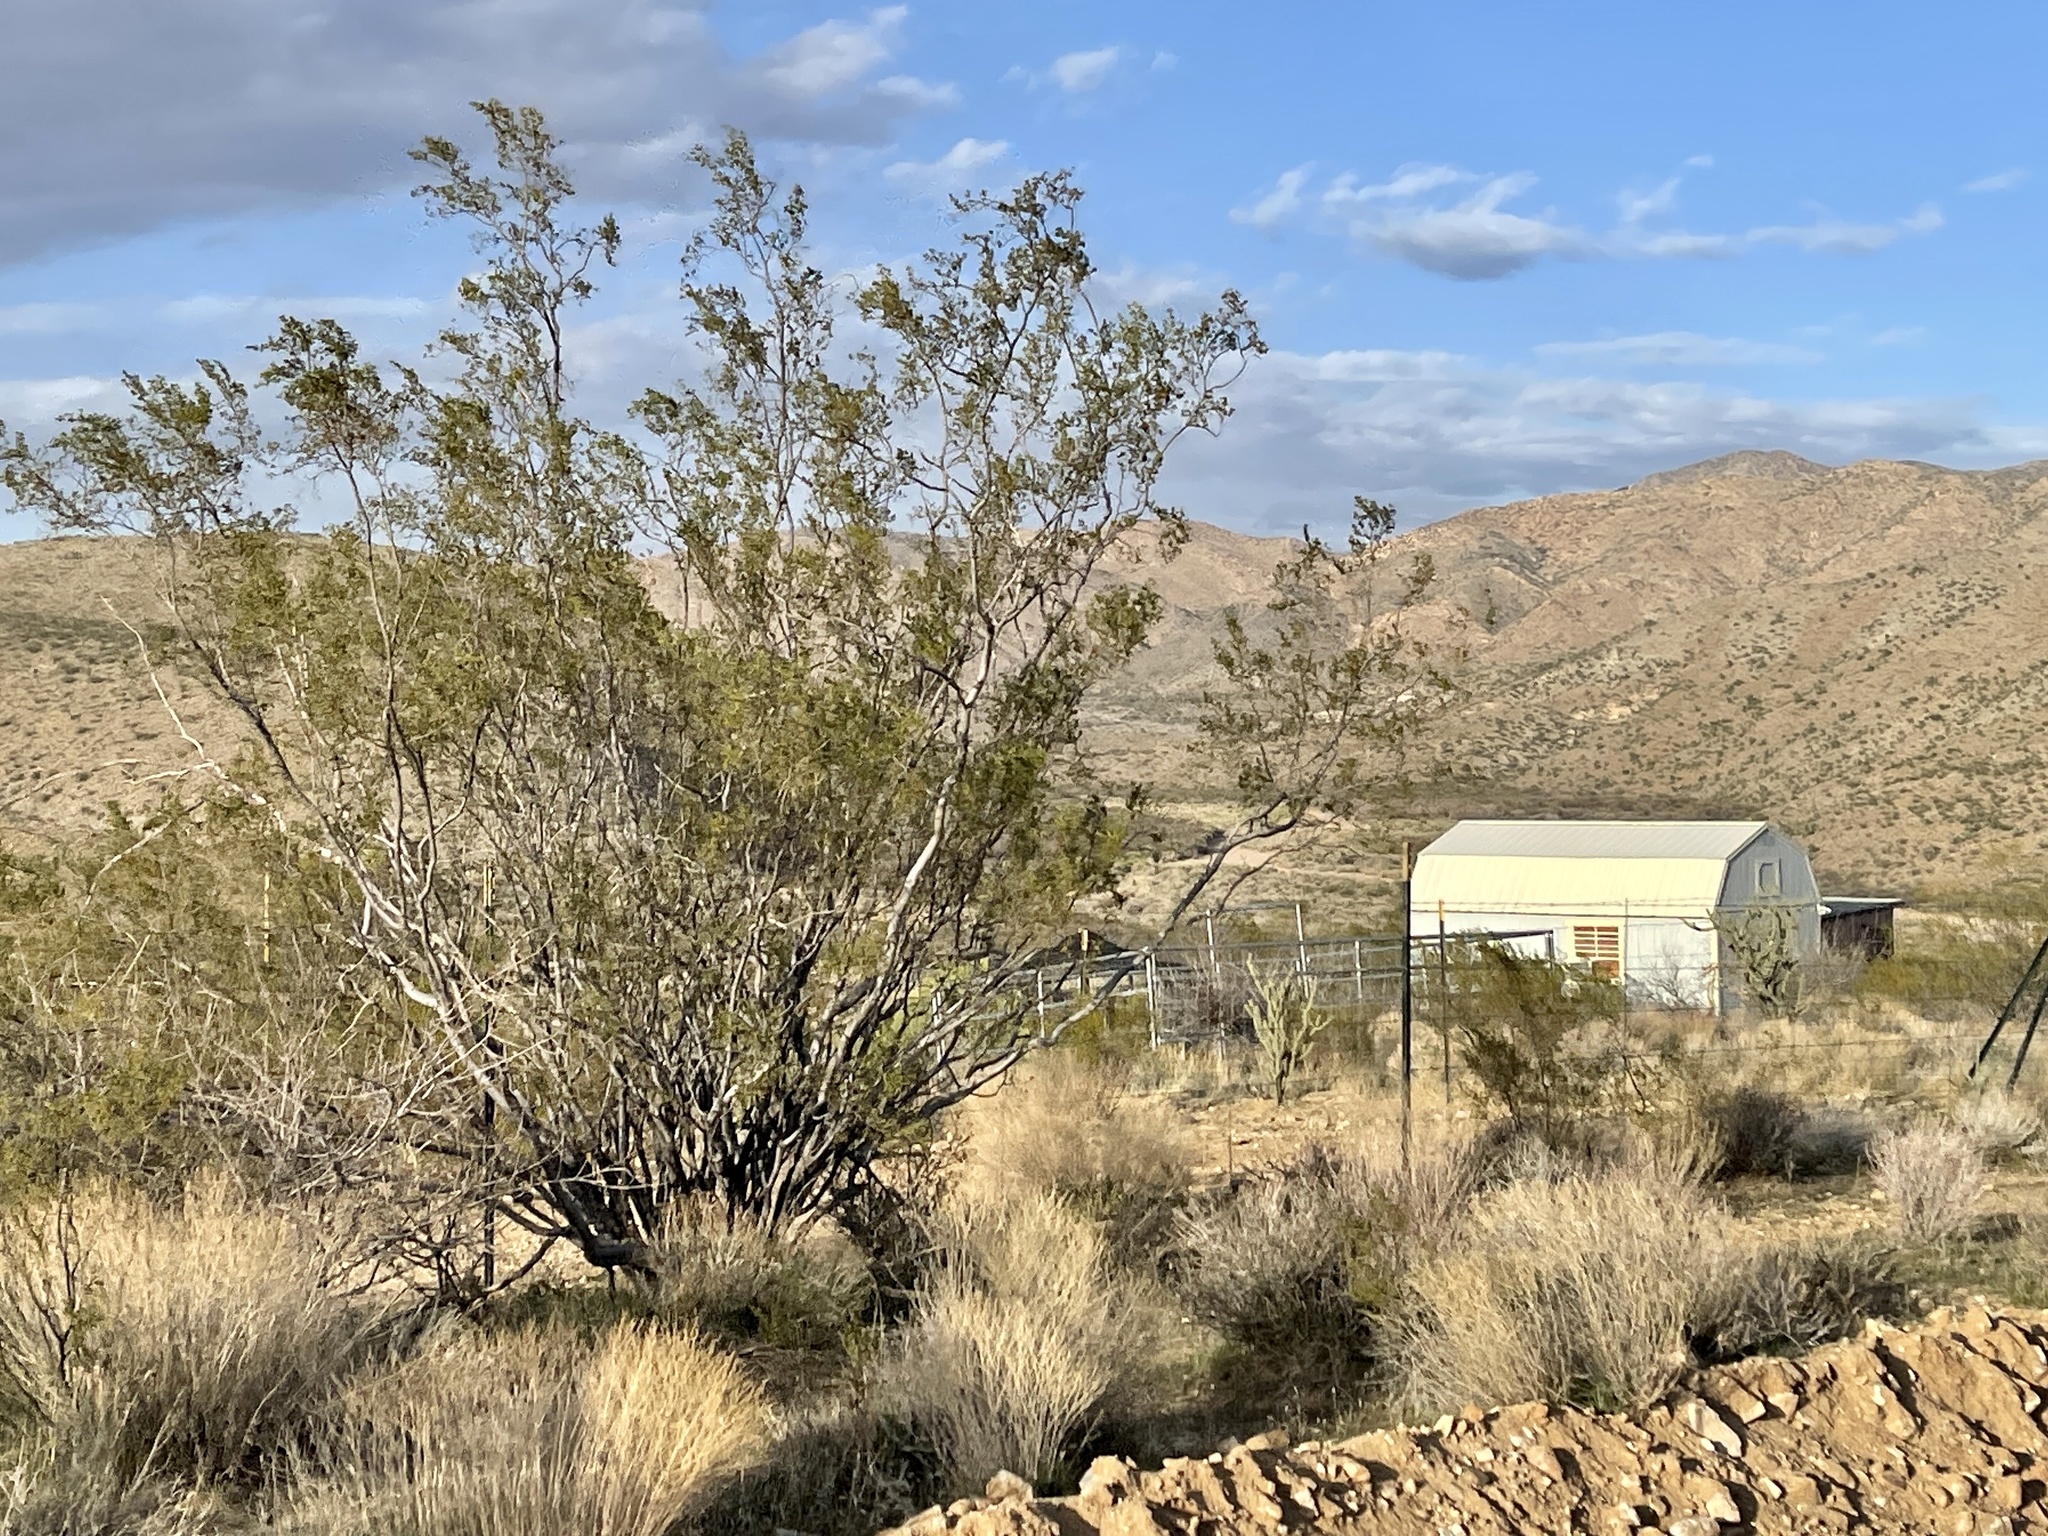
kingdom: Plantae
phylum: Tracheophyta
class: Magnoliopsida
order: Zygophyllales
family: Zygophyllaceae
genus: Larrea
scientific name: Larrea tridentata
